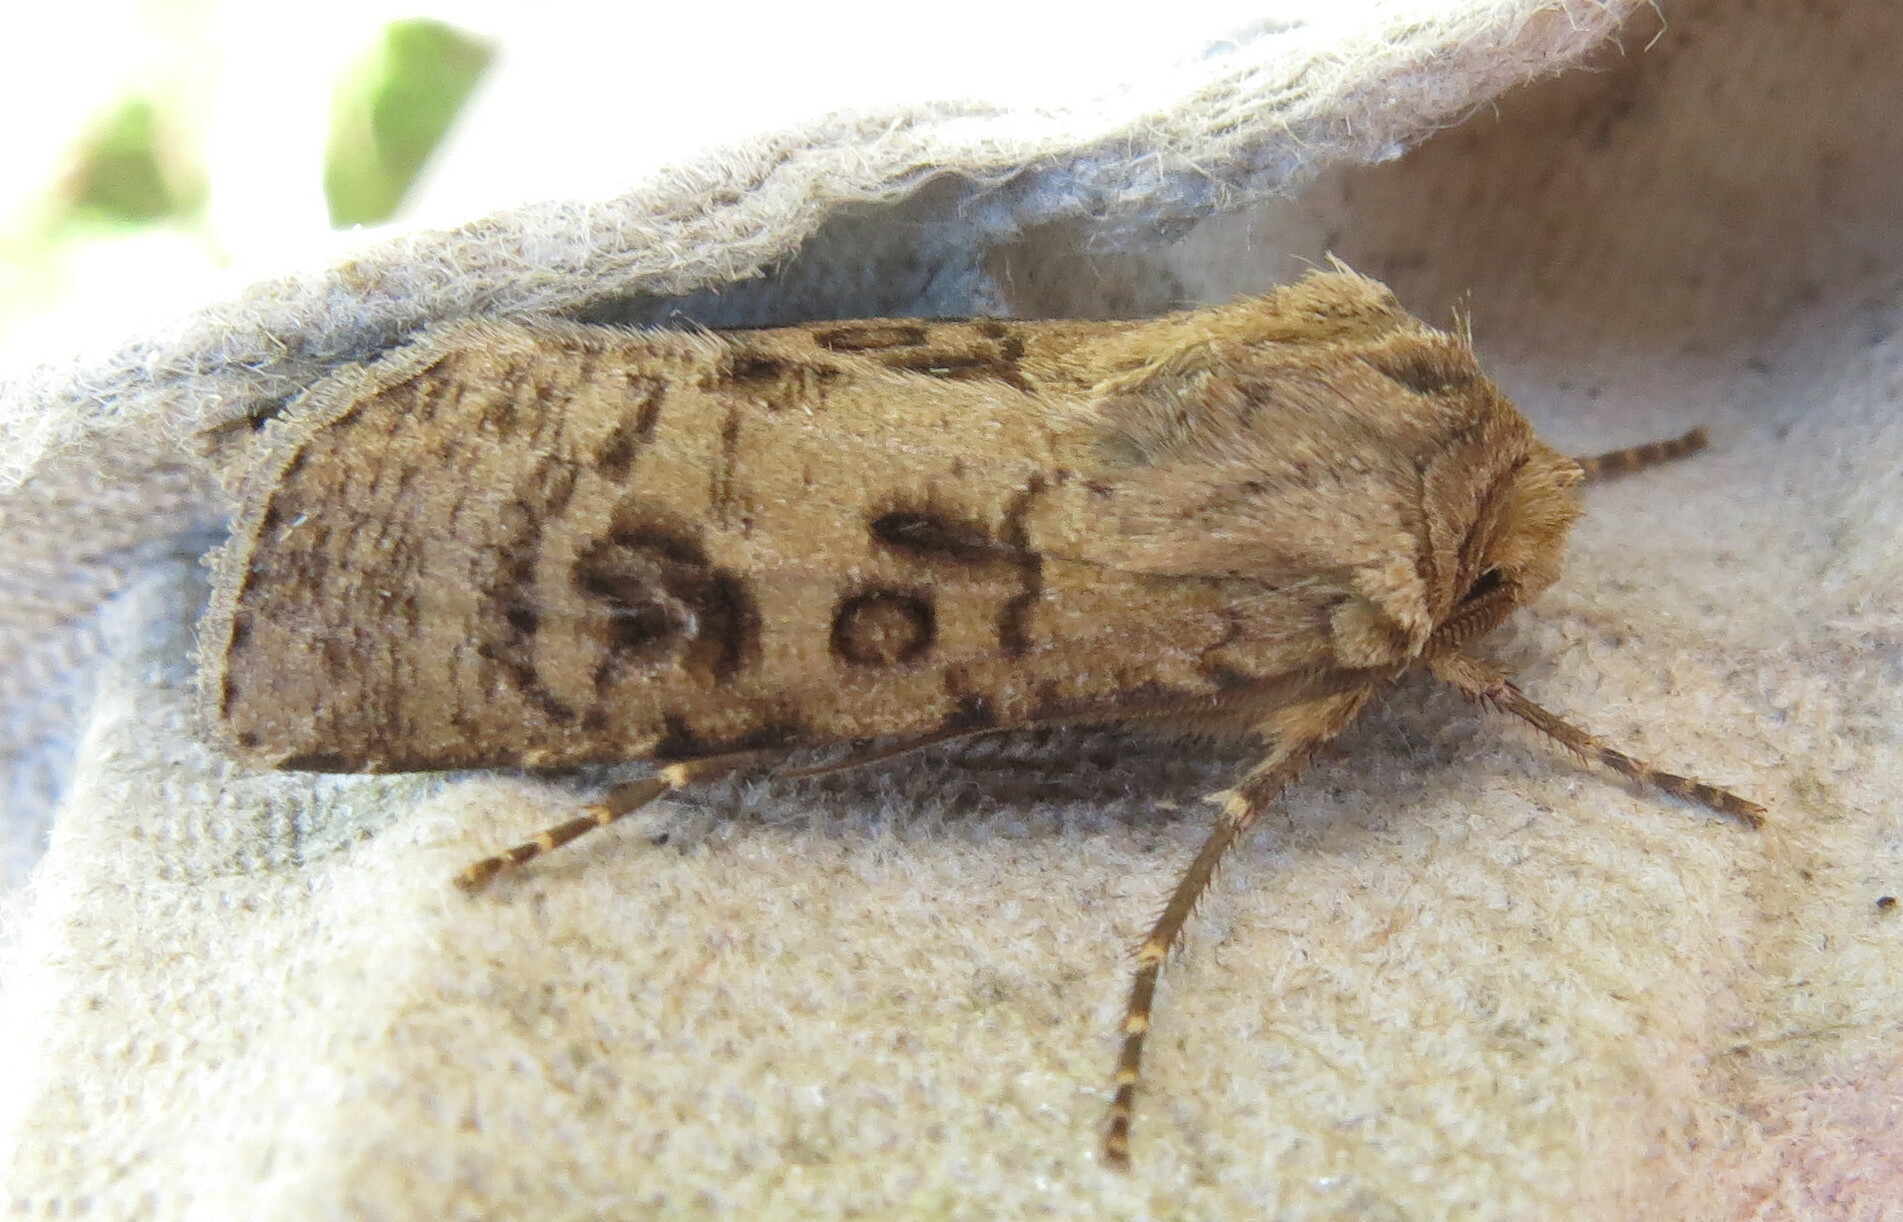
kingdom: Animalia
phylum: Arthropoda
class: Insecta
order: Lepidoptera
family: Noctuidae
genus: Agrotis
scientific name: Agrotis clavis
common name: Heart and club
